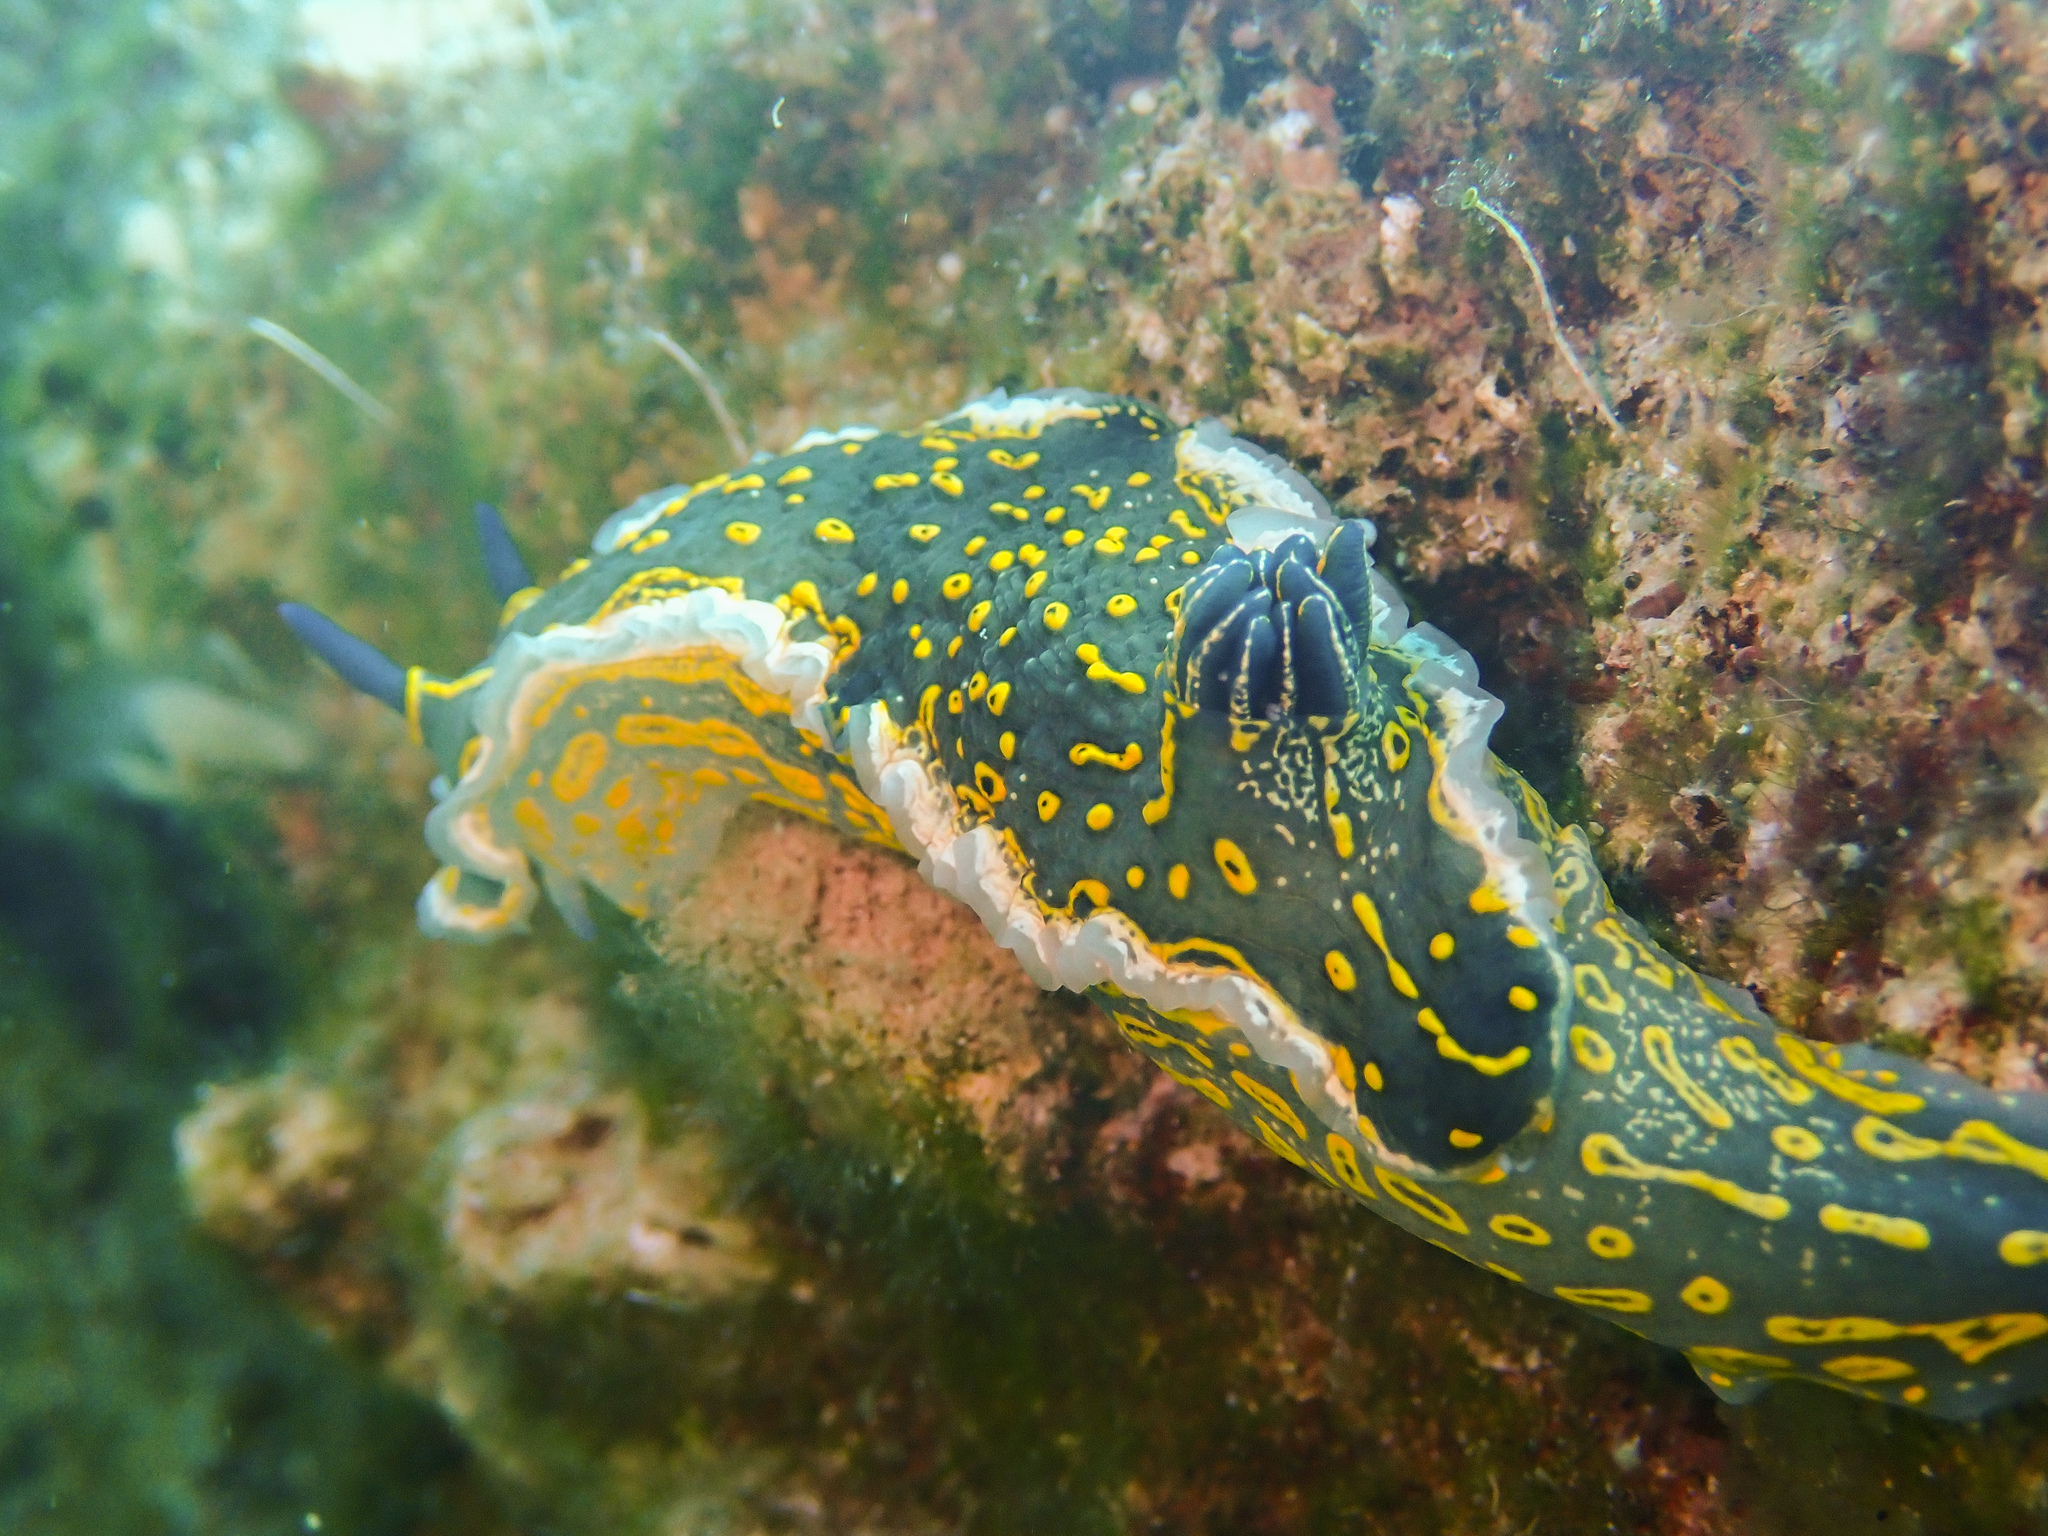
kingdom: Animalia
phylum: Mollusca
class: Gastropoda
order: Nudibranchia
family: Chromodorididae
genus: Felimare
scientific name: Felimare picta
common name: Giant doris
